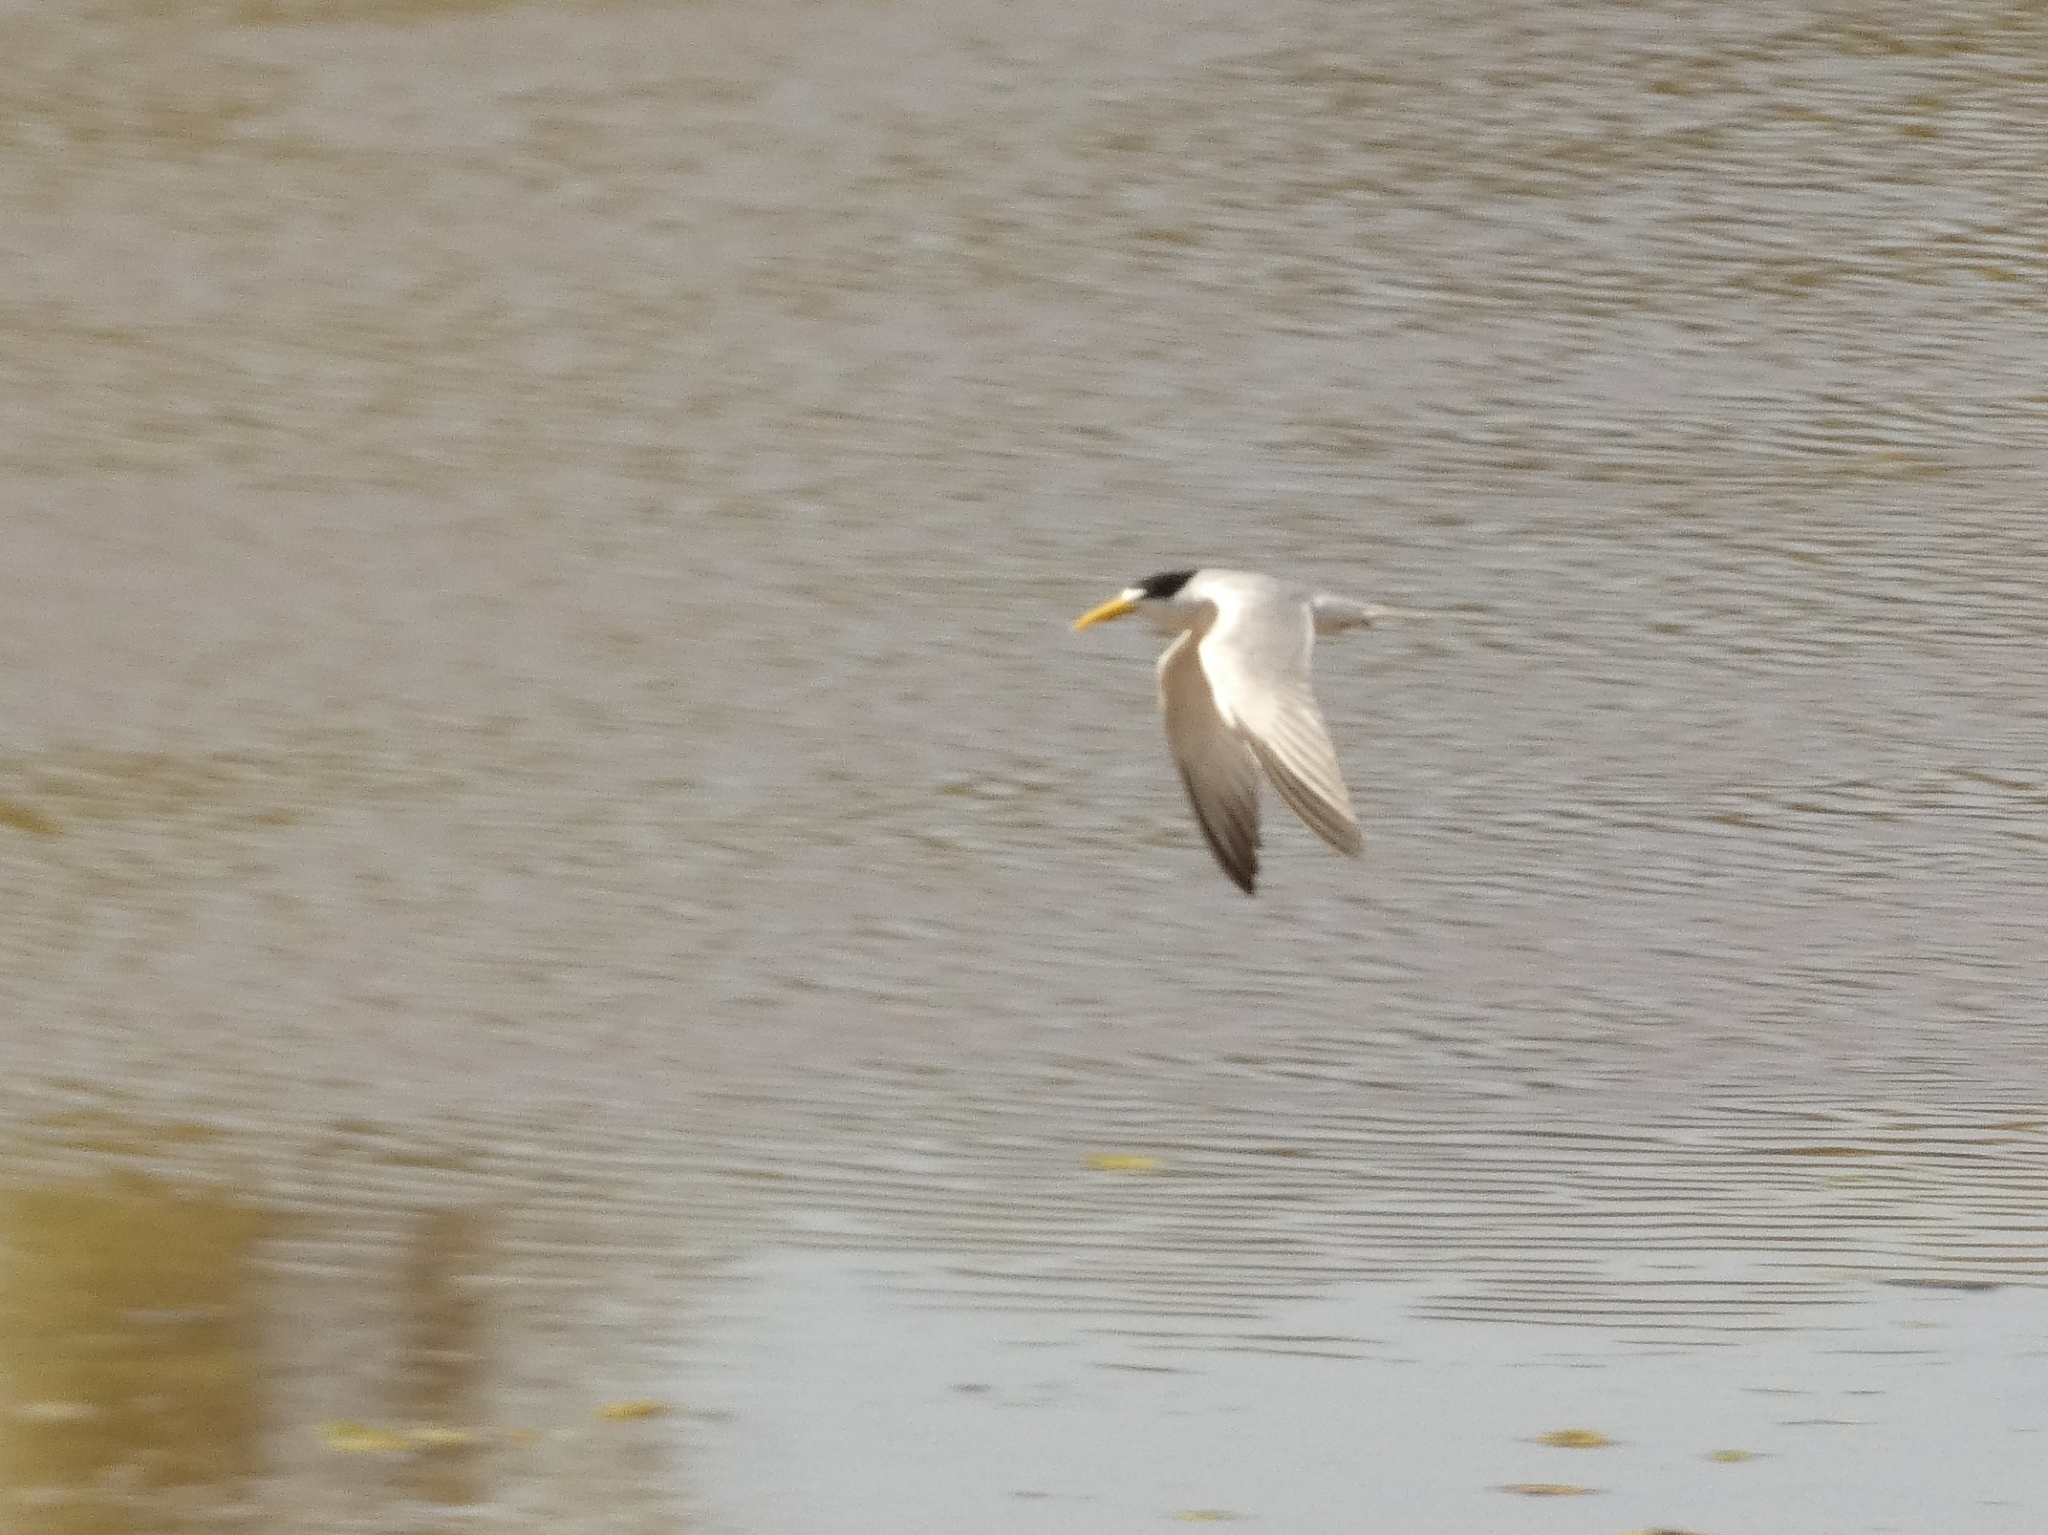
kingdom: Animalia
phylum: Chordata
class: Aves
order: Charadriiformes
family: Laridae
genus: Phaetusa
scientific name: Phaetusa simplex
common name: Large-billed tern
